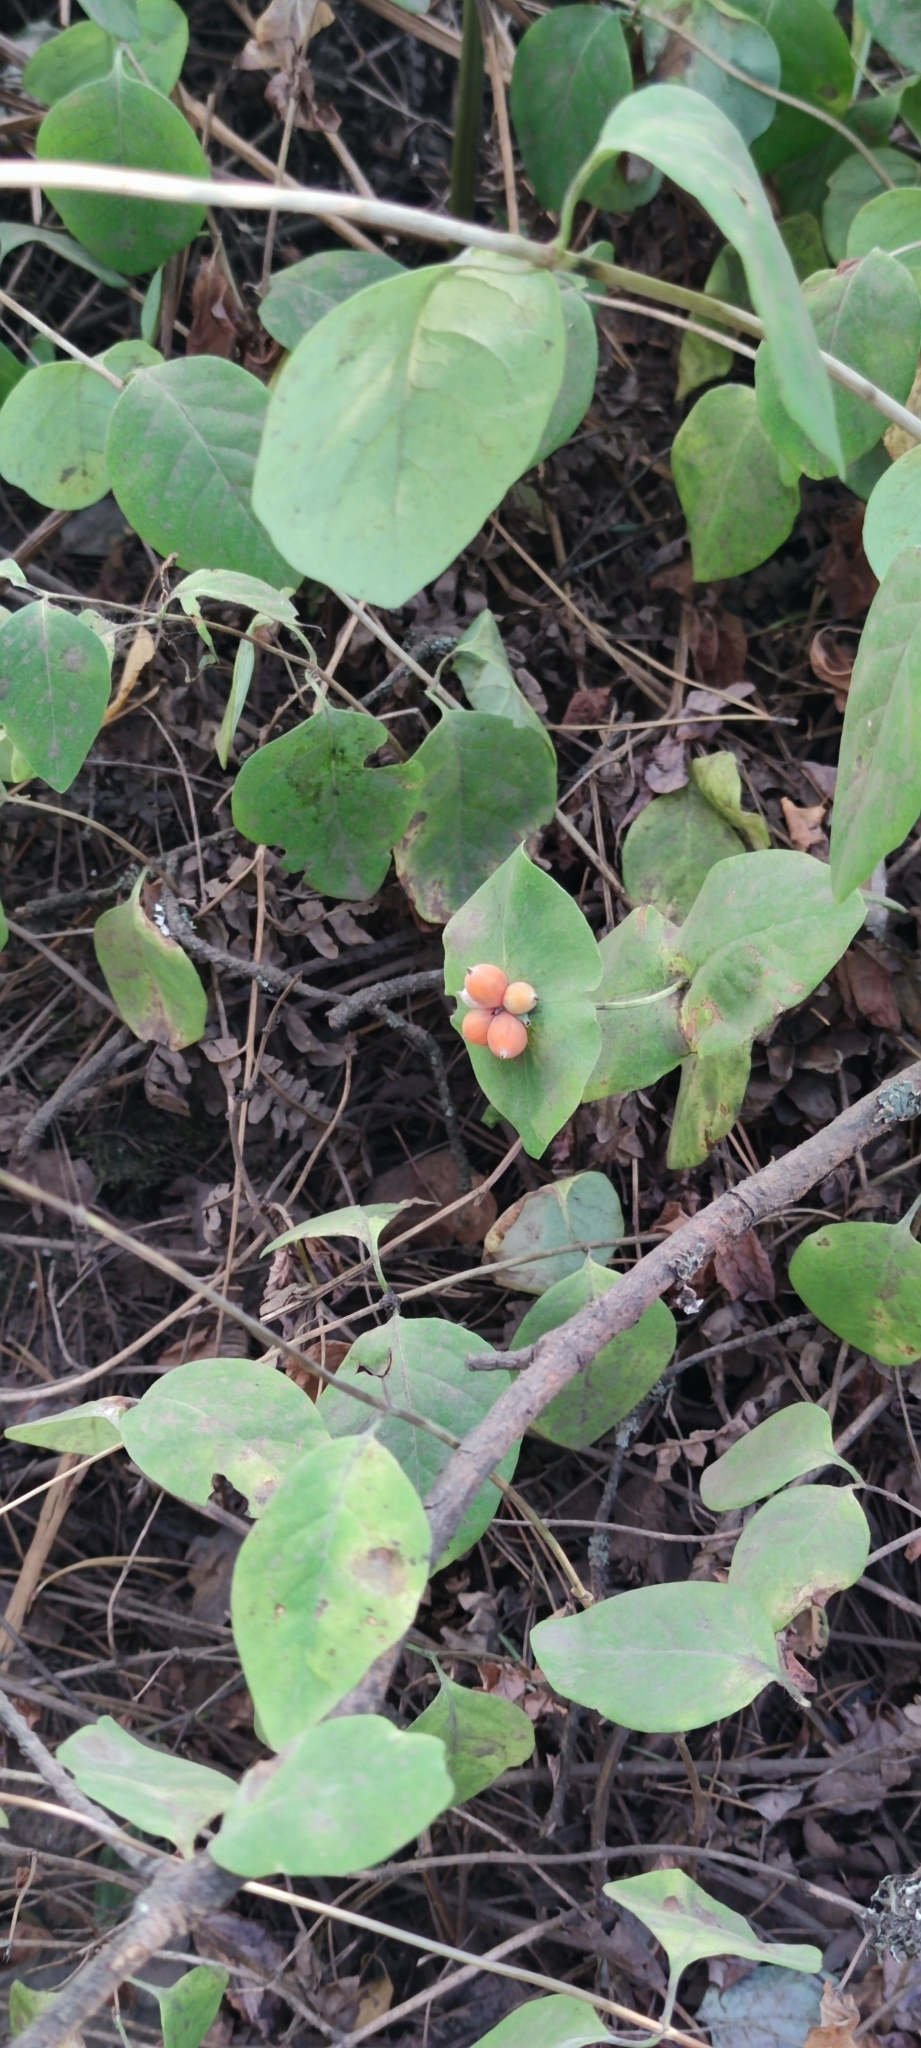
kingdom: Plantae
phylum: Tracheophyta
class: Magnoliopsida
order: Dipsacales
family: Caprifoliaceae
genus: Lonicera
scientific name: Lonicera caprifolium
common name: Perfoliate honeysuckle
